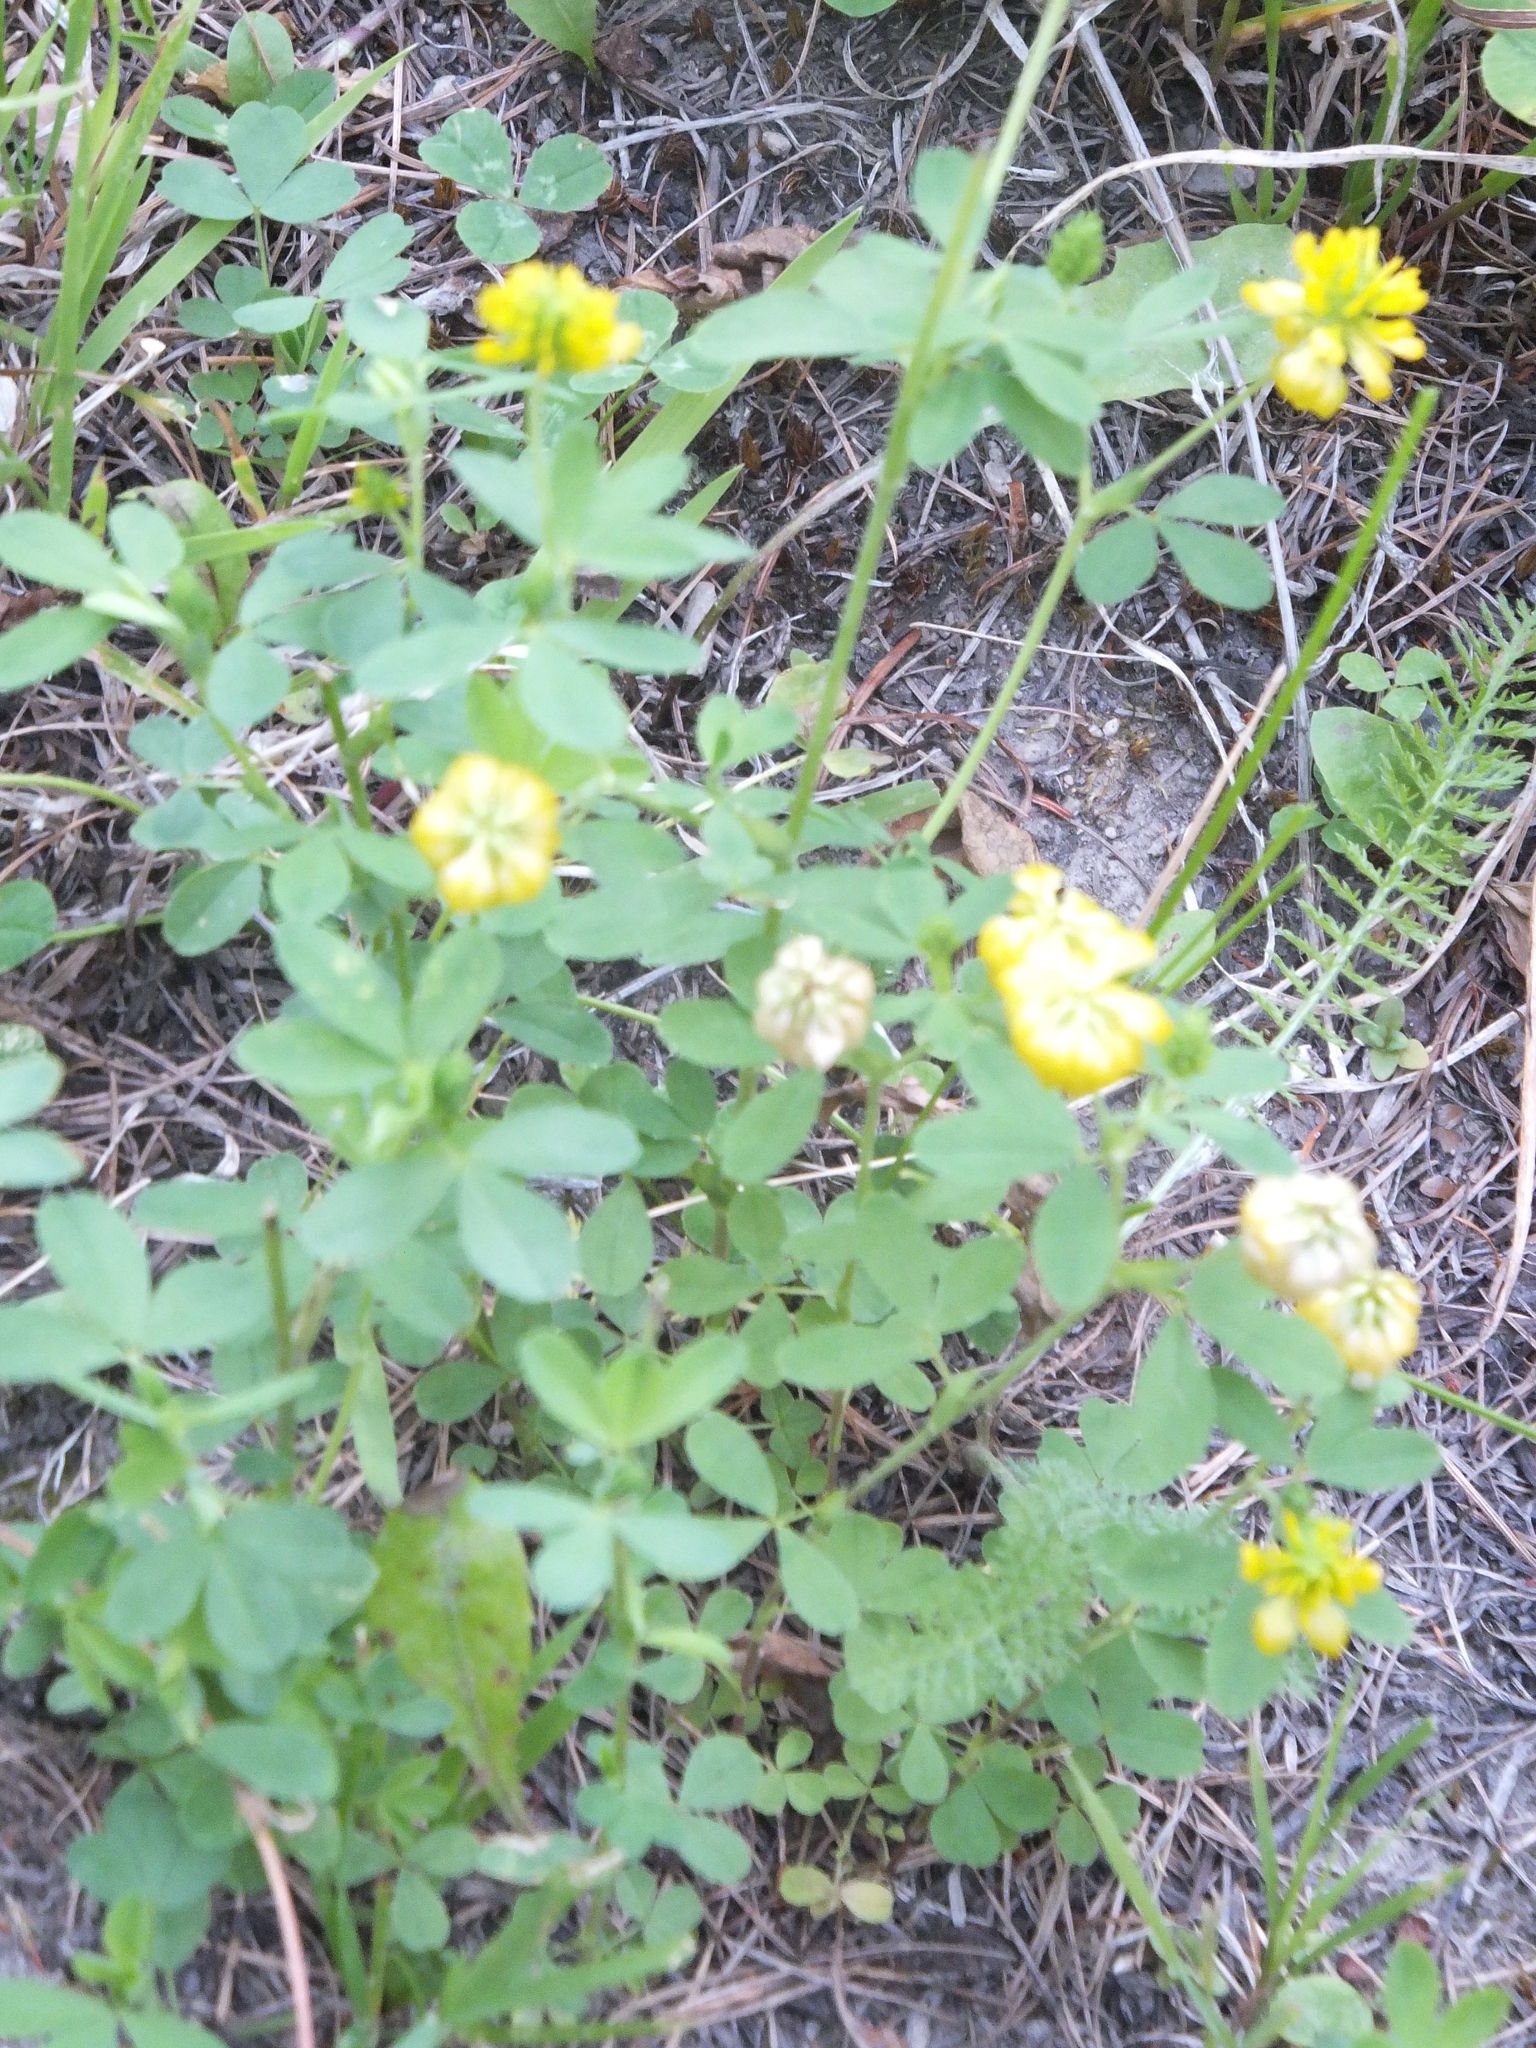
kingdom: Plantae
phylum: Tracheophyta
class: Magnoliopsida
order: Fabales
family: Fabaceae
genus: Trifolium
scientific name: Trifolium aureum
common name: Golden clover
